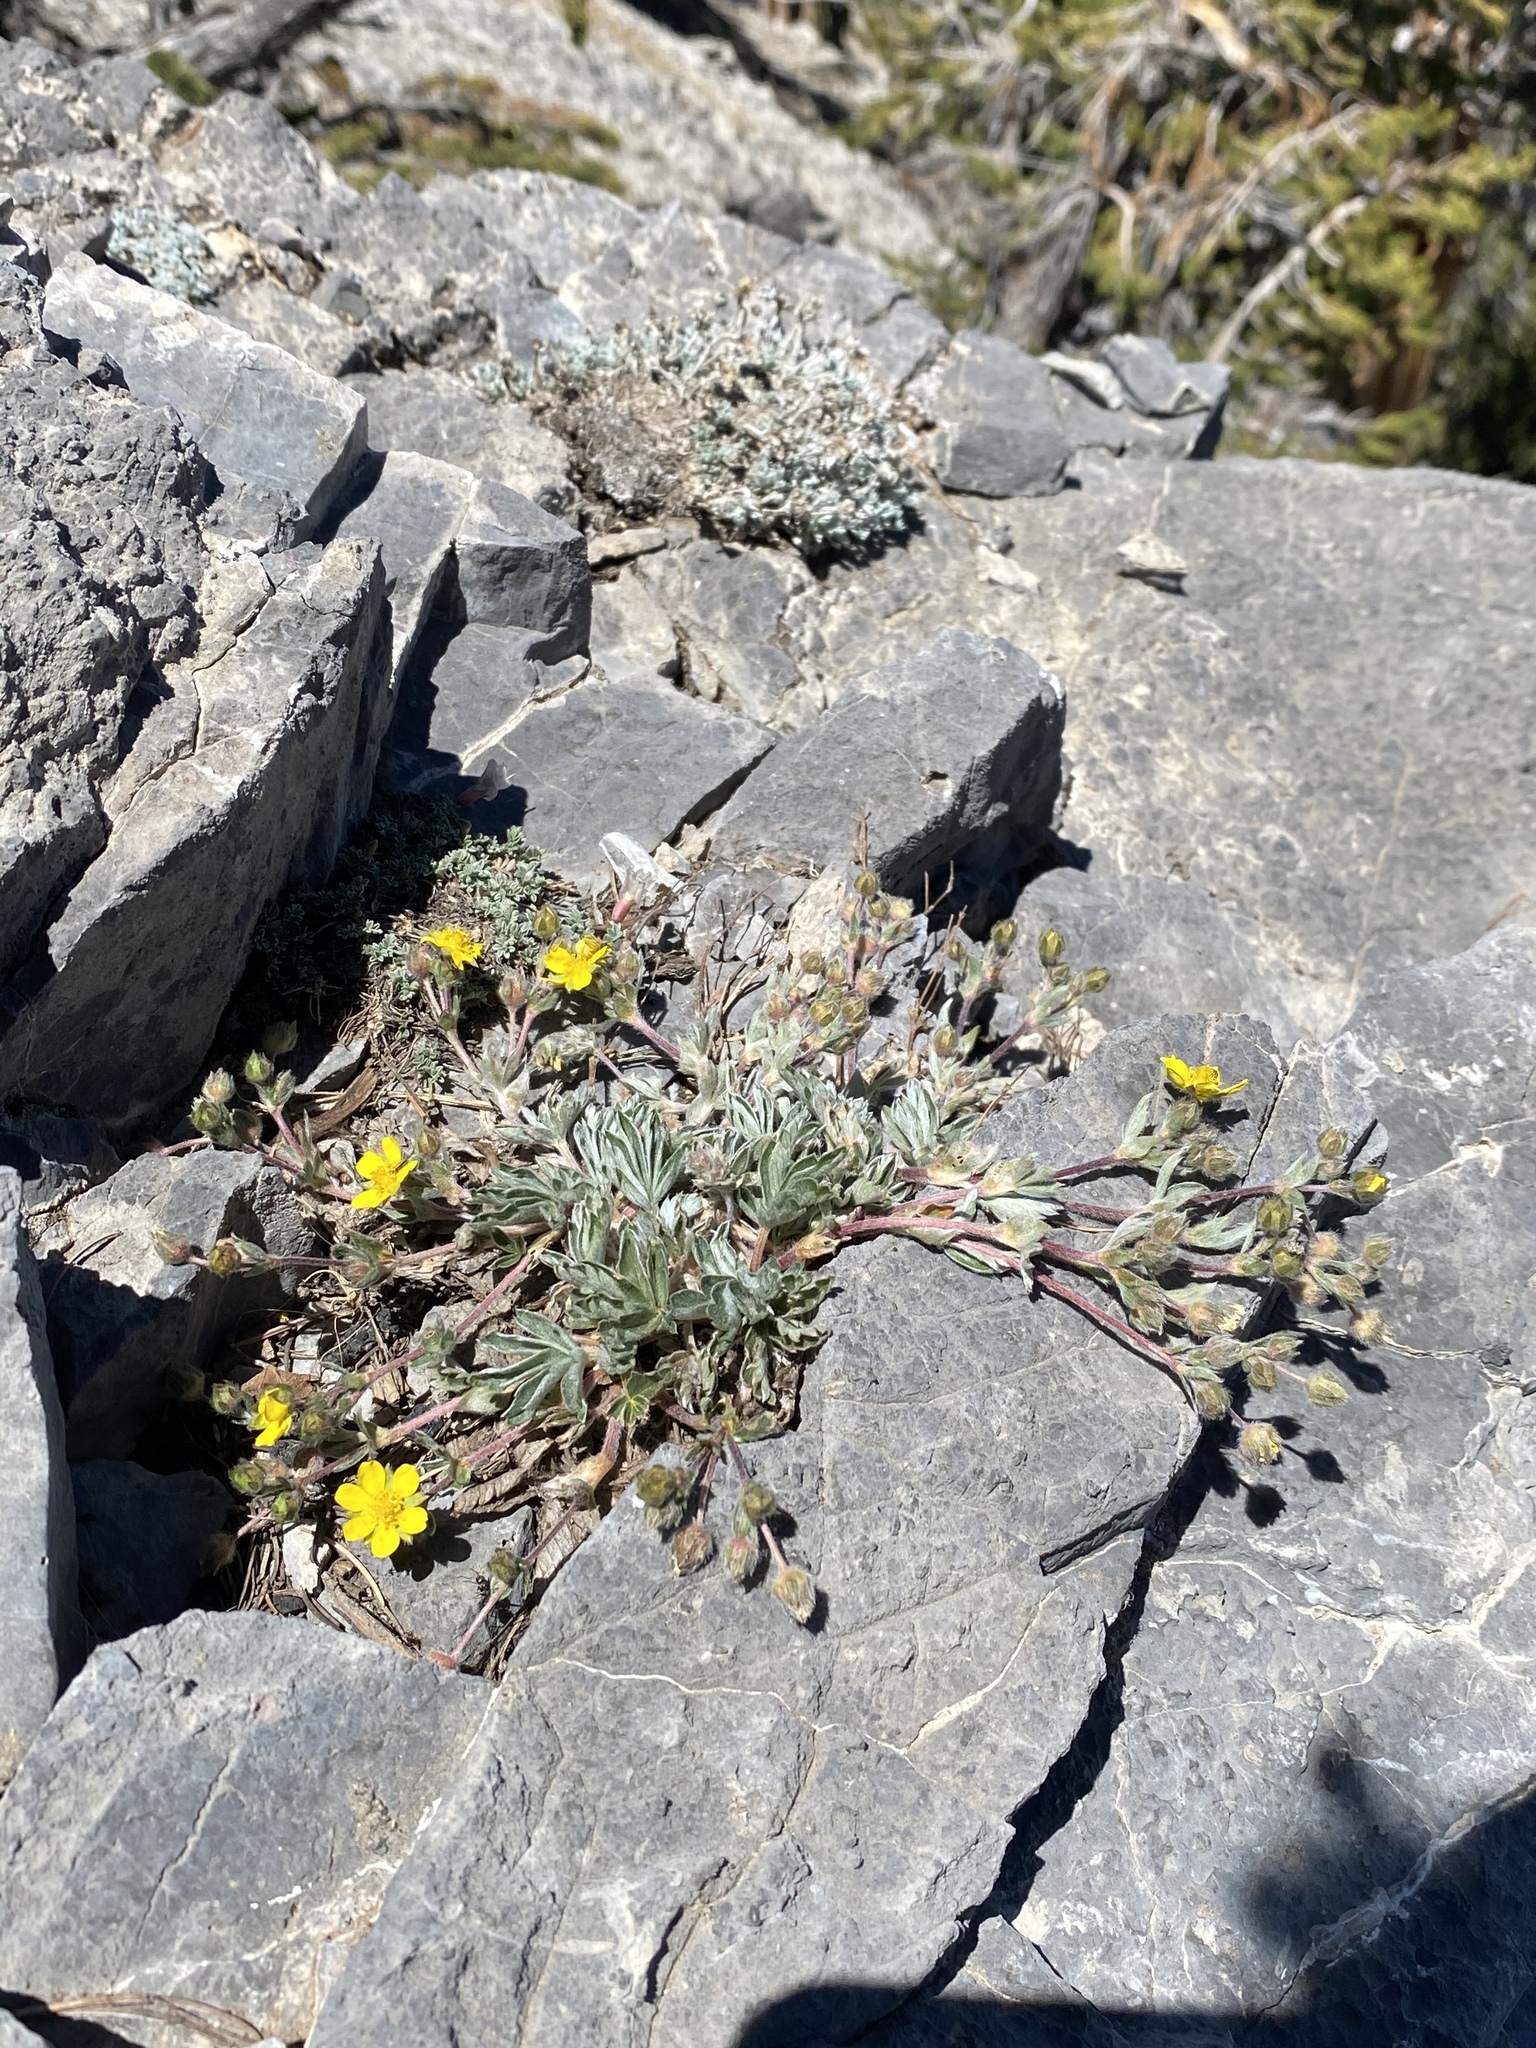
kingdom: Plantae
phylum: Tracheophyta
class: Magnoliopsida
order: Rosales
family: Rosaceae
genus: Potentilla
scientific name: Potentilla concinna
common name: Early cinquefoil
